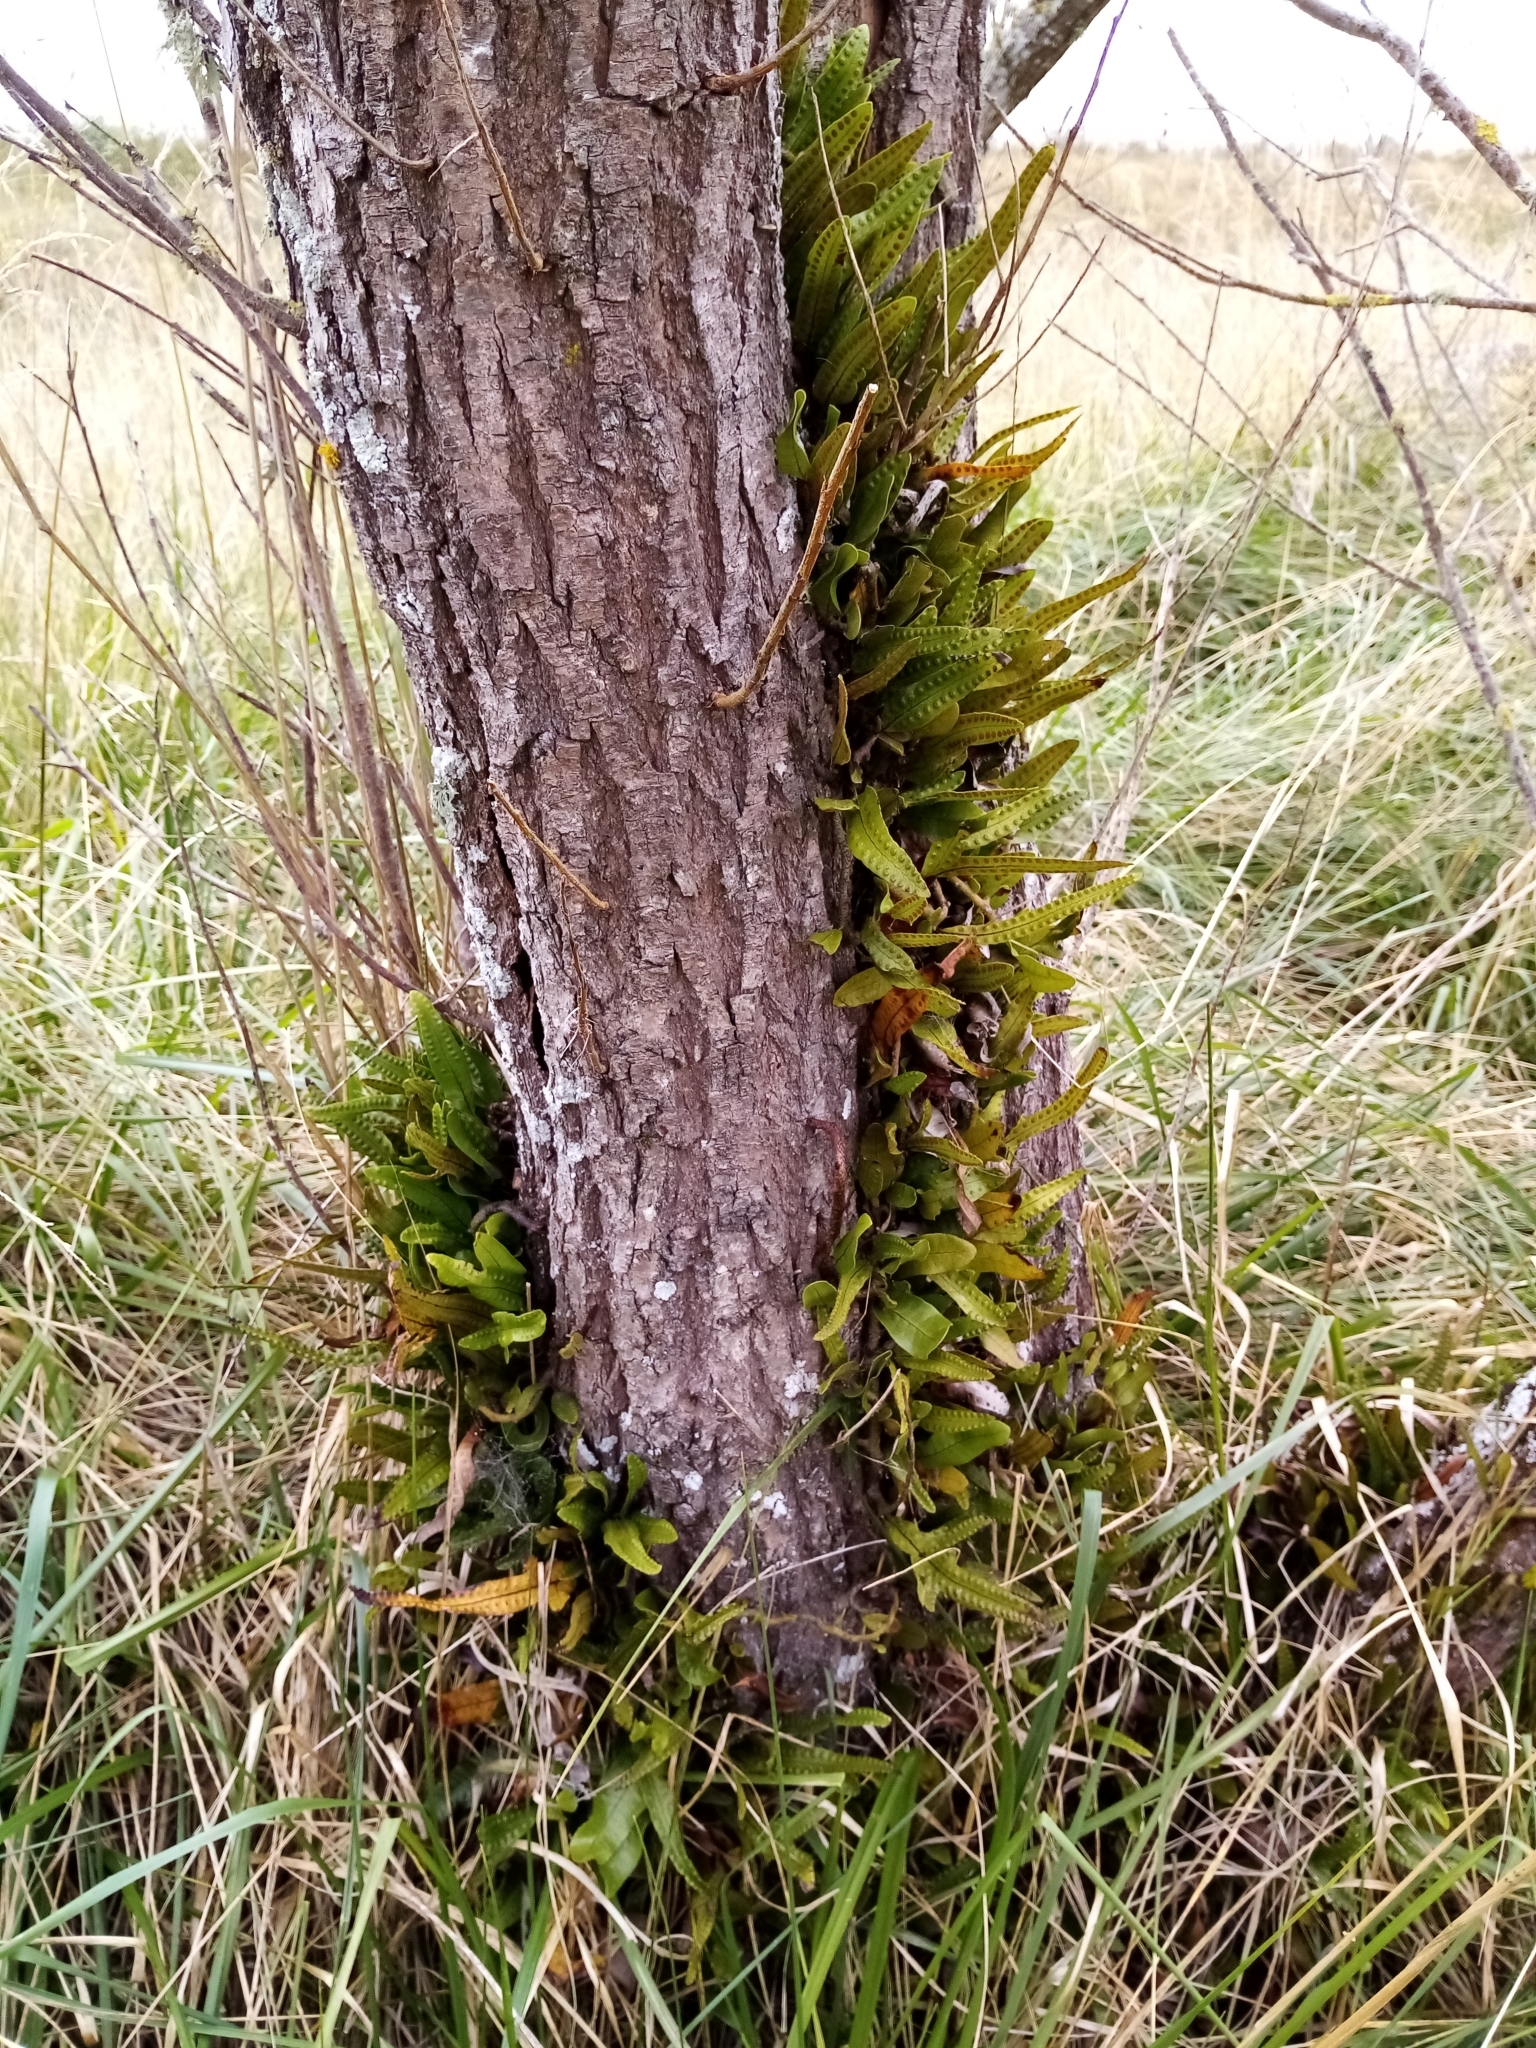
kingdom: Plantae
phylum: Tracheophyta
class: Polypodiopsida
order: Polypodiales
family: Polypodiaceae
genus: Lecanopteris
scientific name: Lecanopteris pustulata
